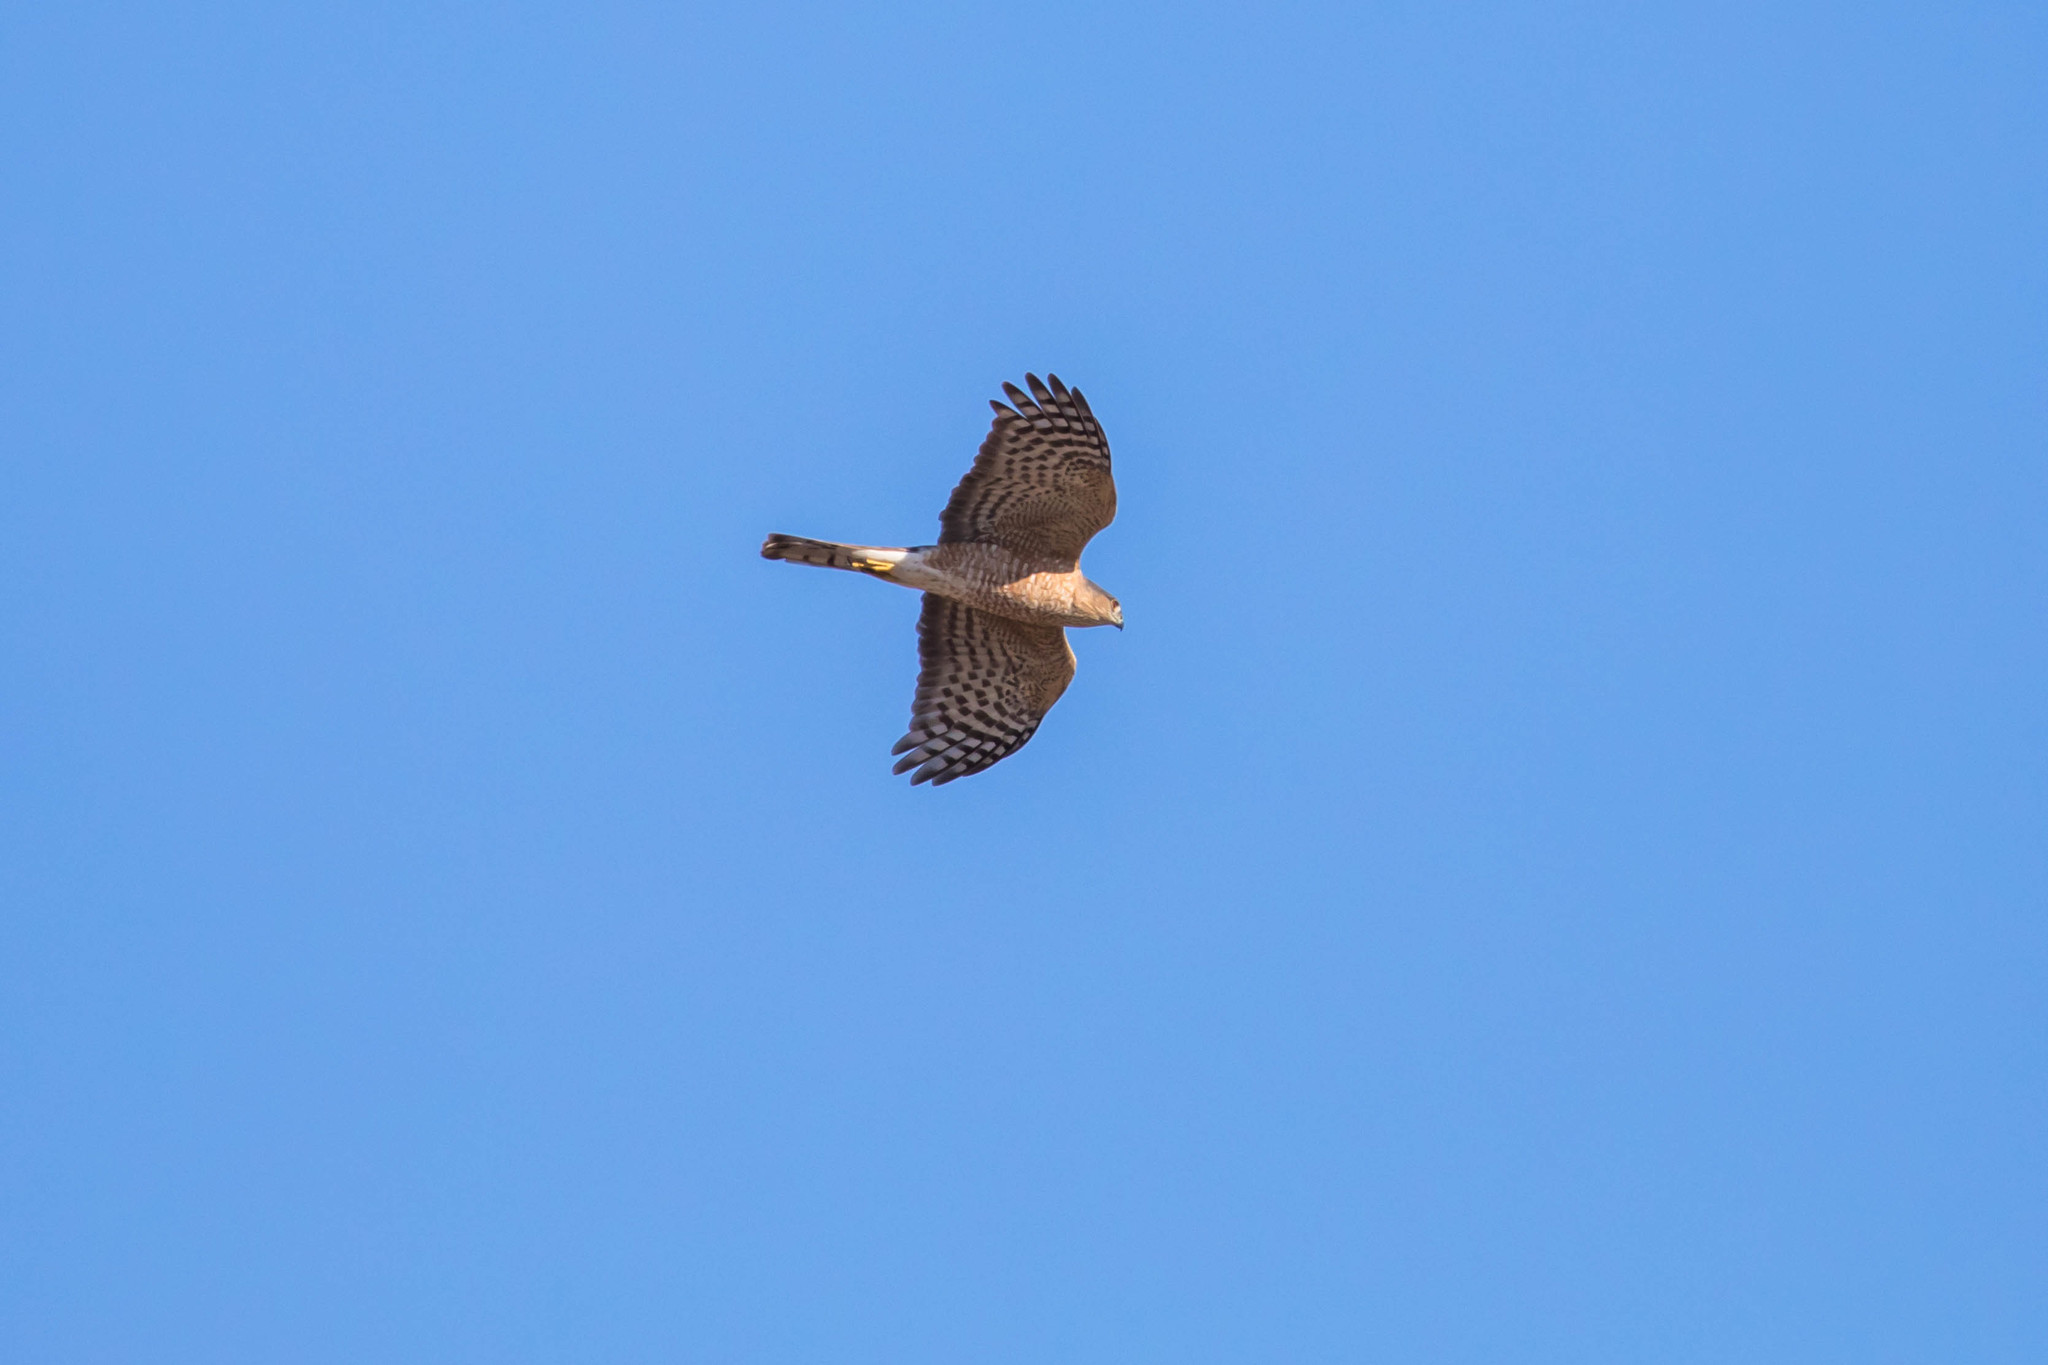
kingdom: Animalia
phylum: Chordata
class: Aves
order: Accipitriformes
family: Accipitridae
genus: Accipiter
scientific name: Accipiter striatus
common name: Sharp-shinned hawk
